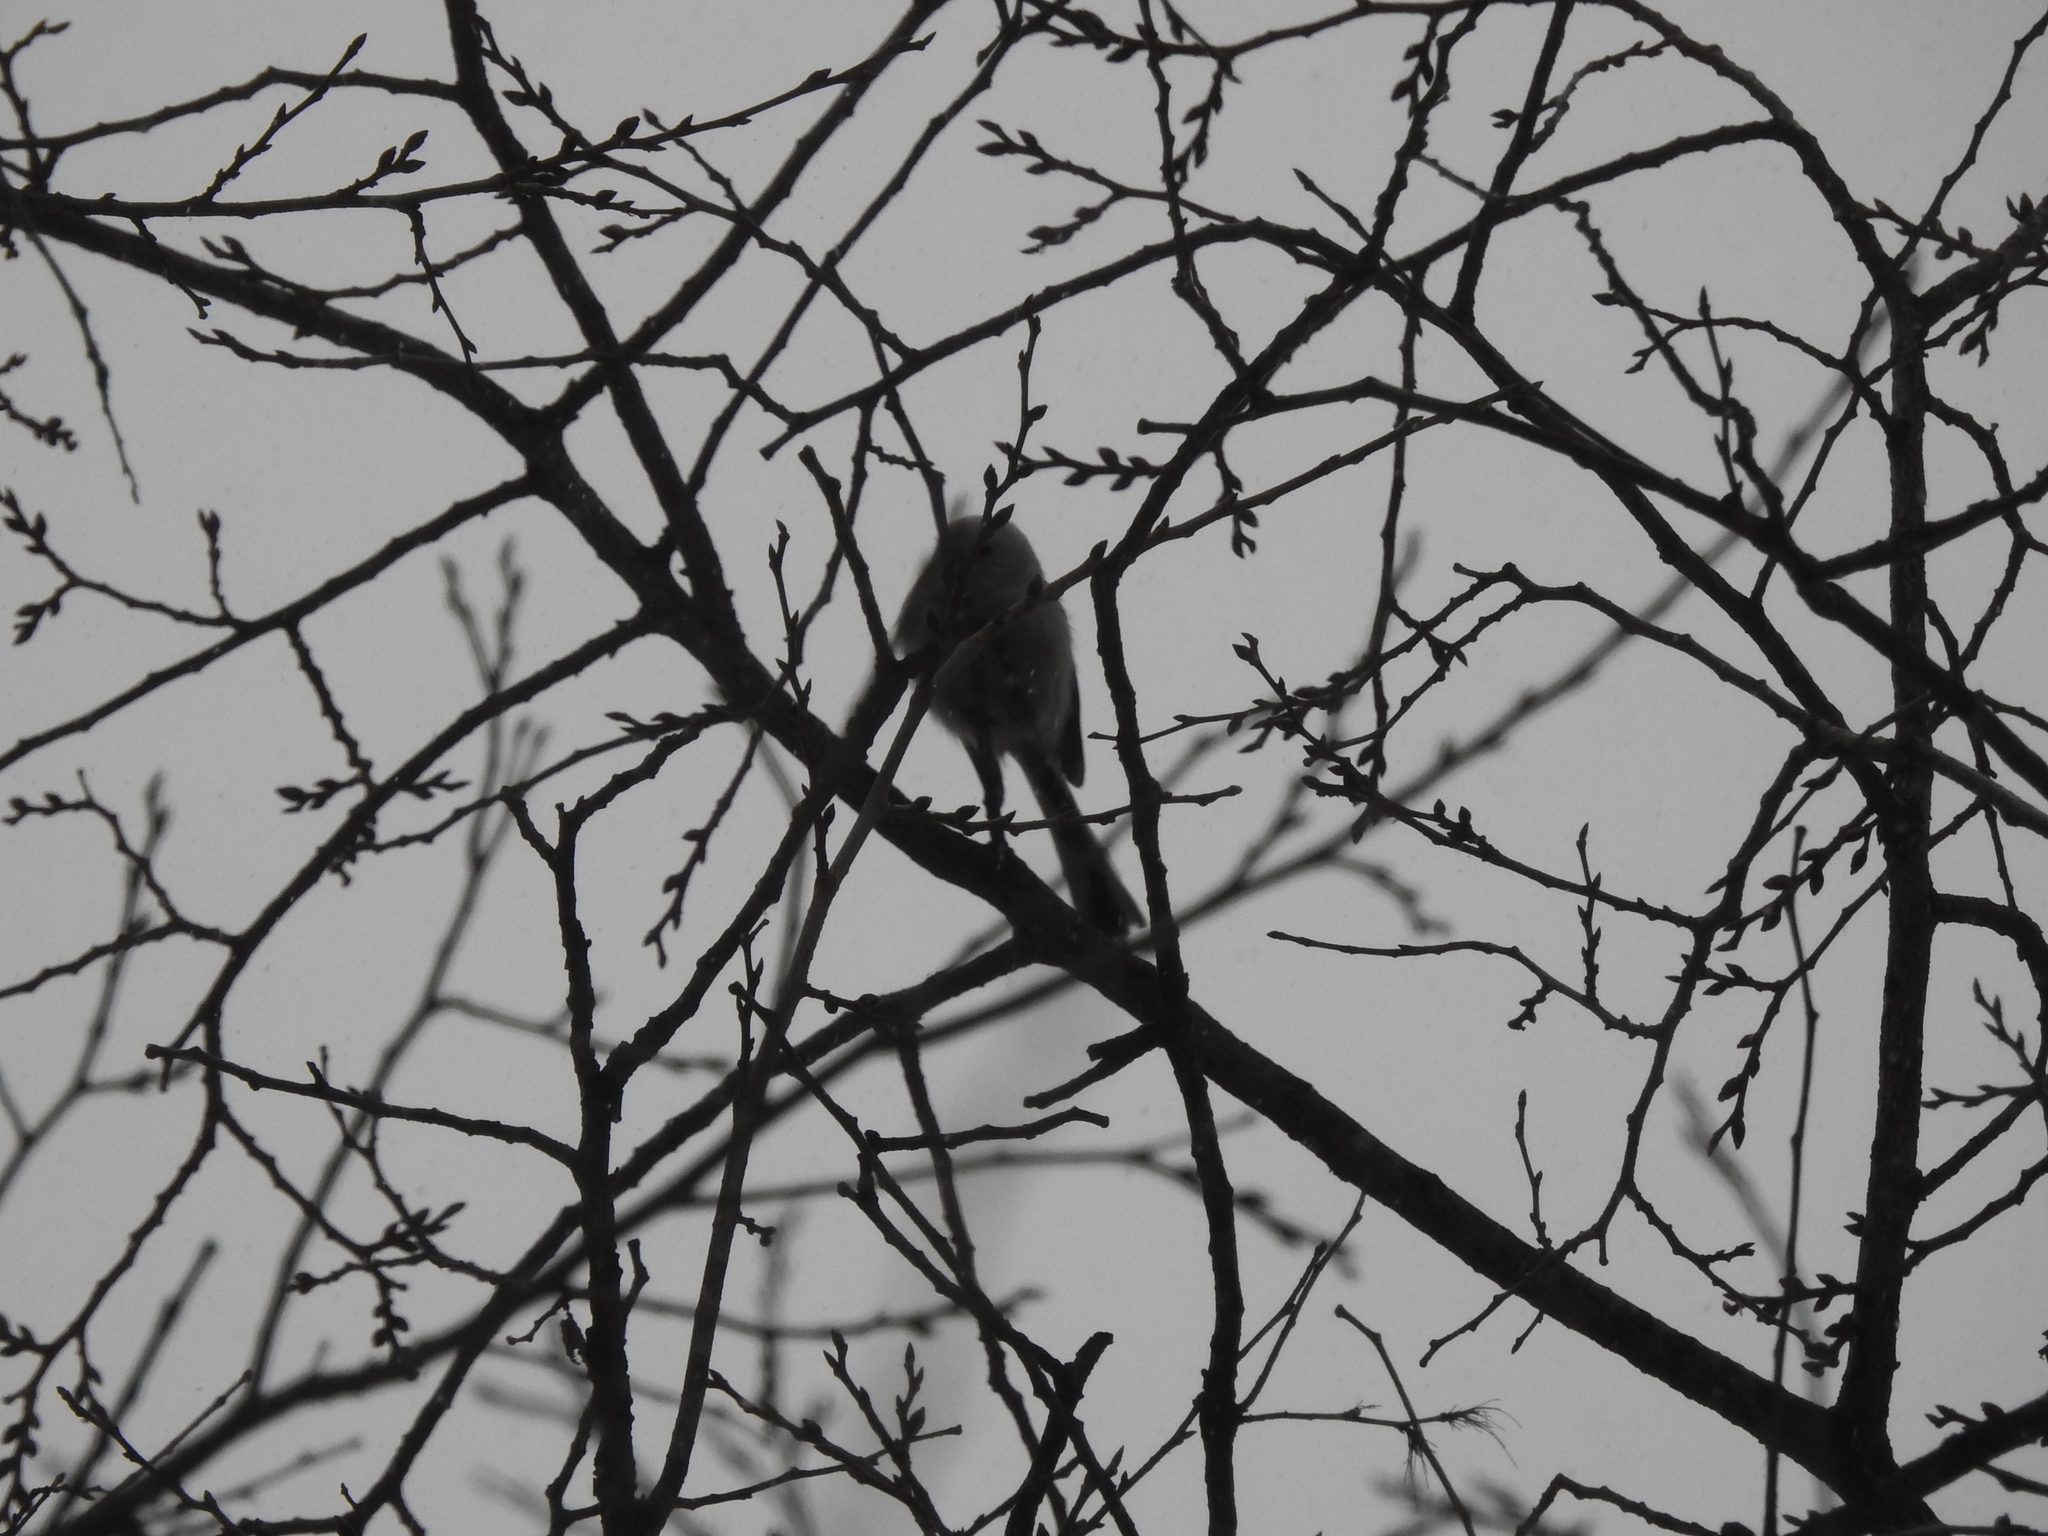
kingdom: Animalia
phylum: Chordata
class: Aves
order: Passeriformes
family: Aegithalidae
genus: Aegithalos
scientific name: Aegithalos caudatus
